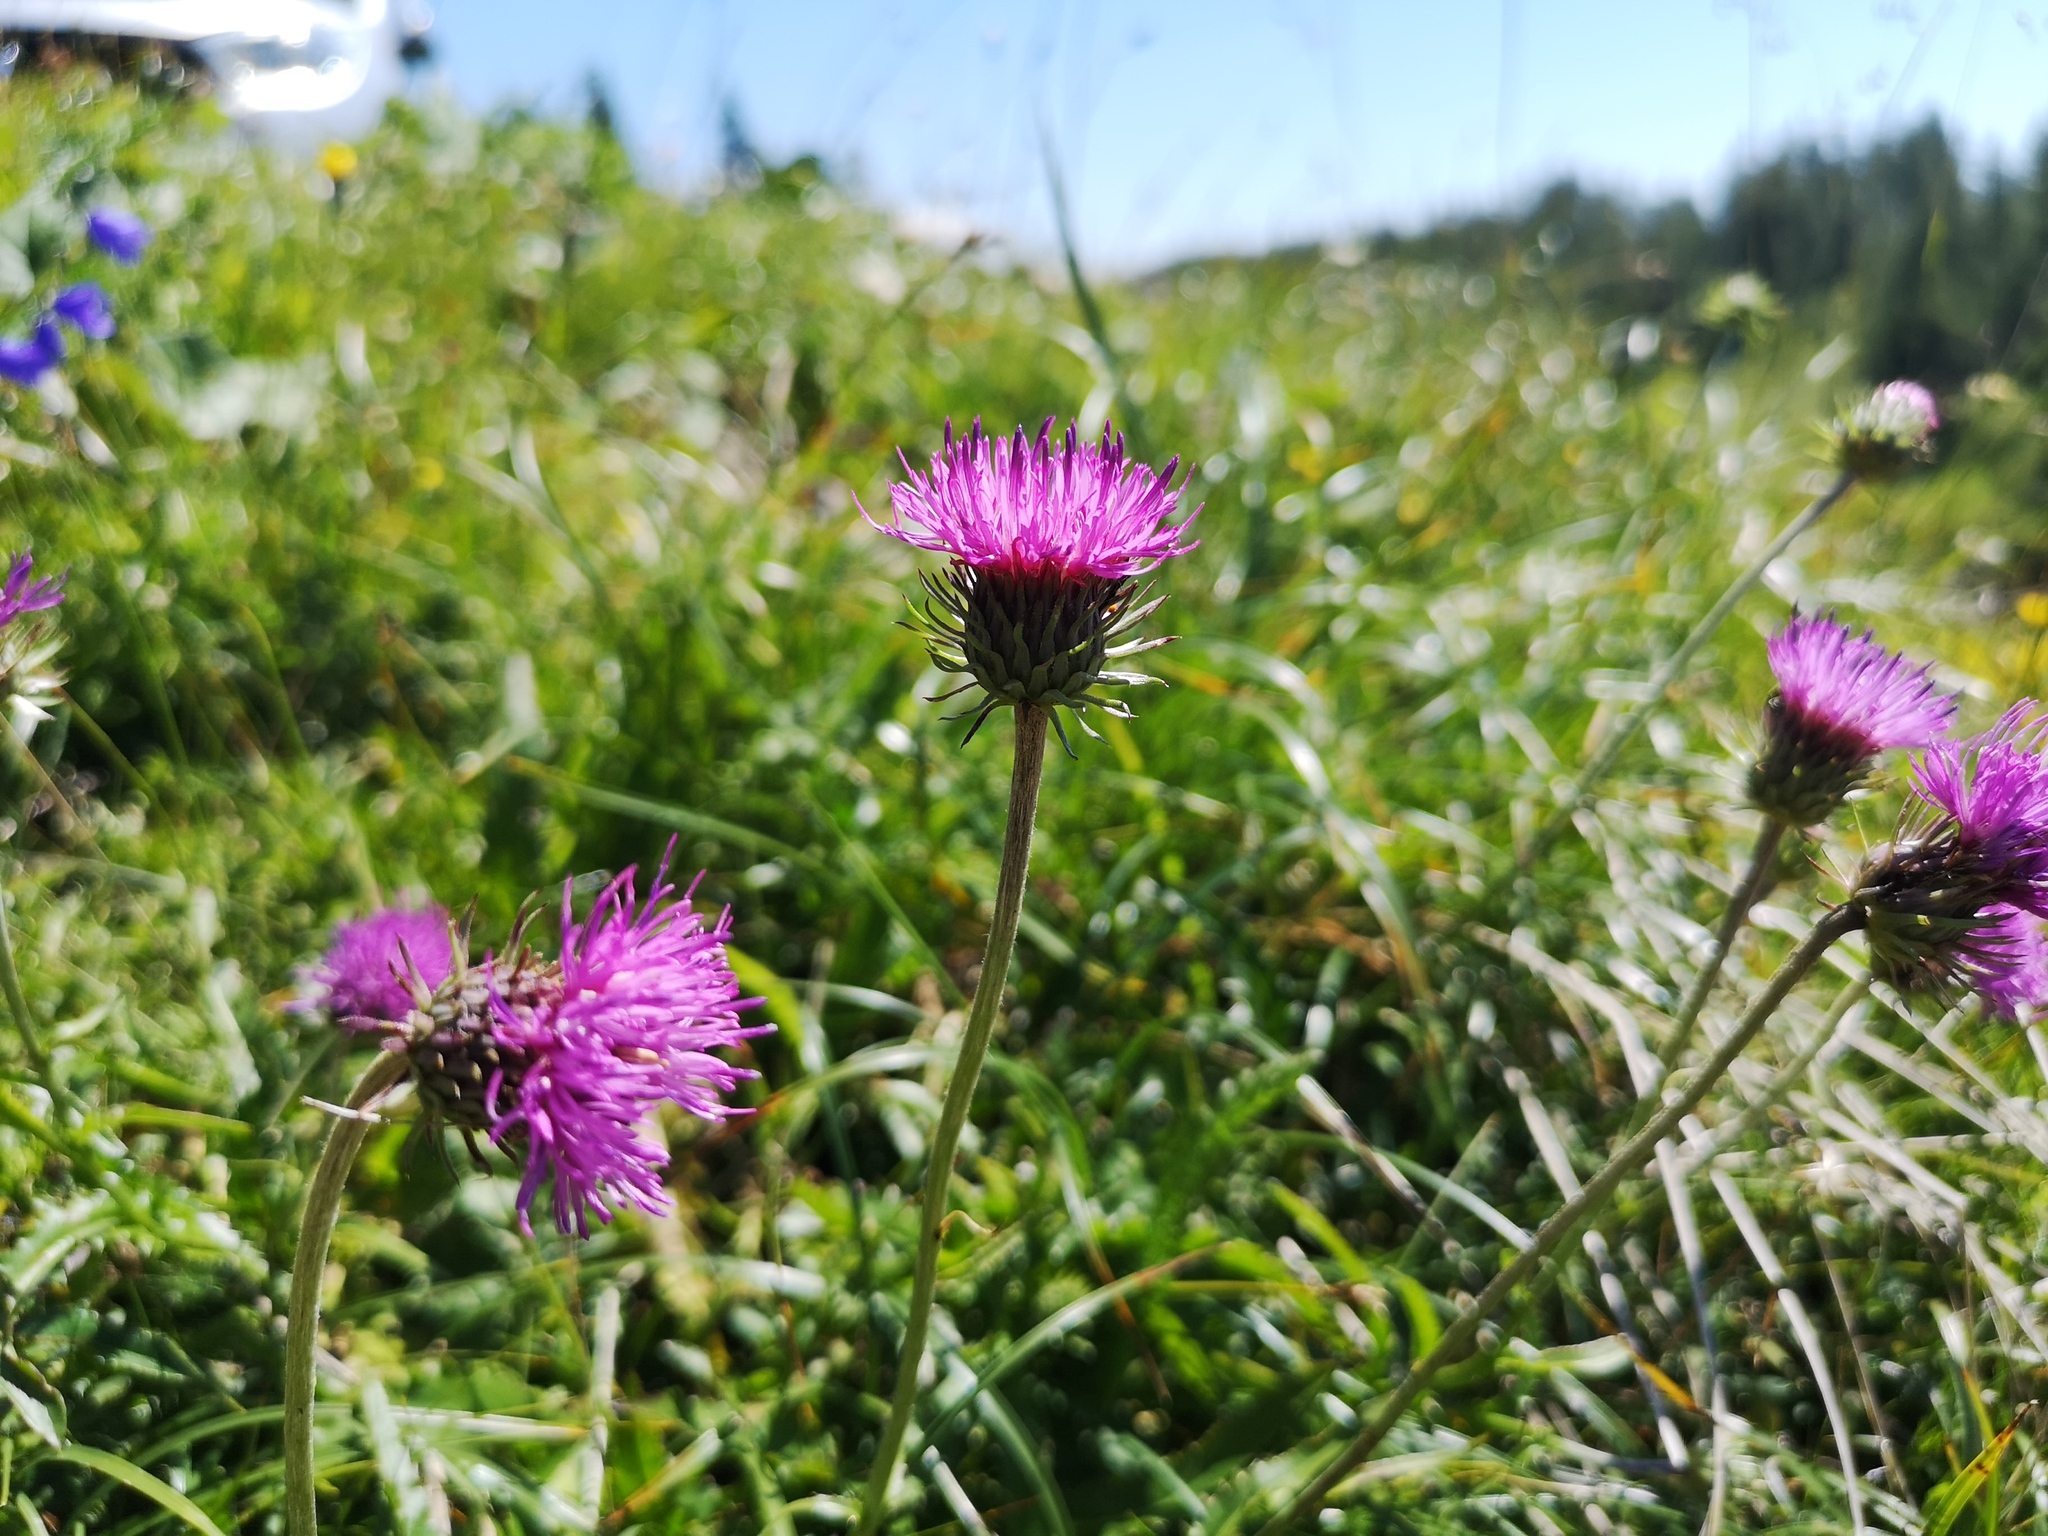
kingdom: Plantae
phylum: Tracheophyta
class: Magnoliopsida
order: Asterales
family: Asteraceae
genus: Carduus
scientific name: Carduus defloratus
